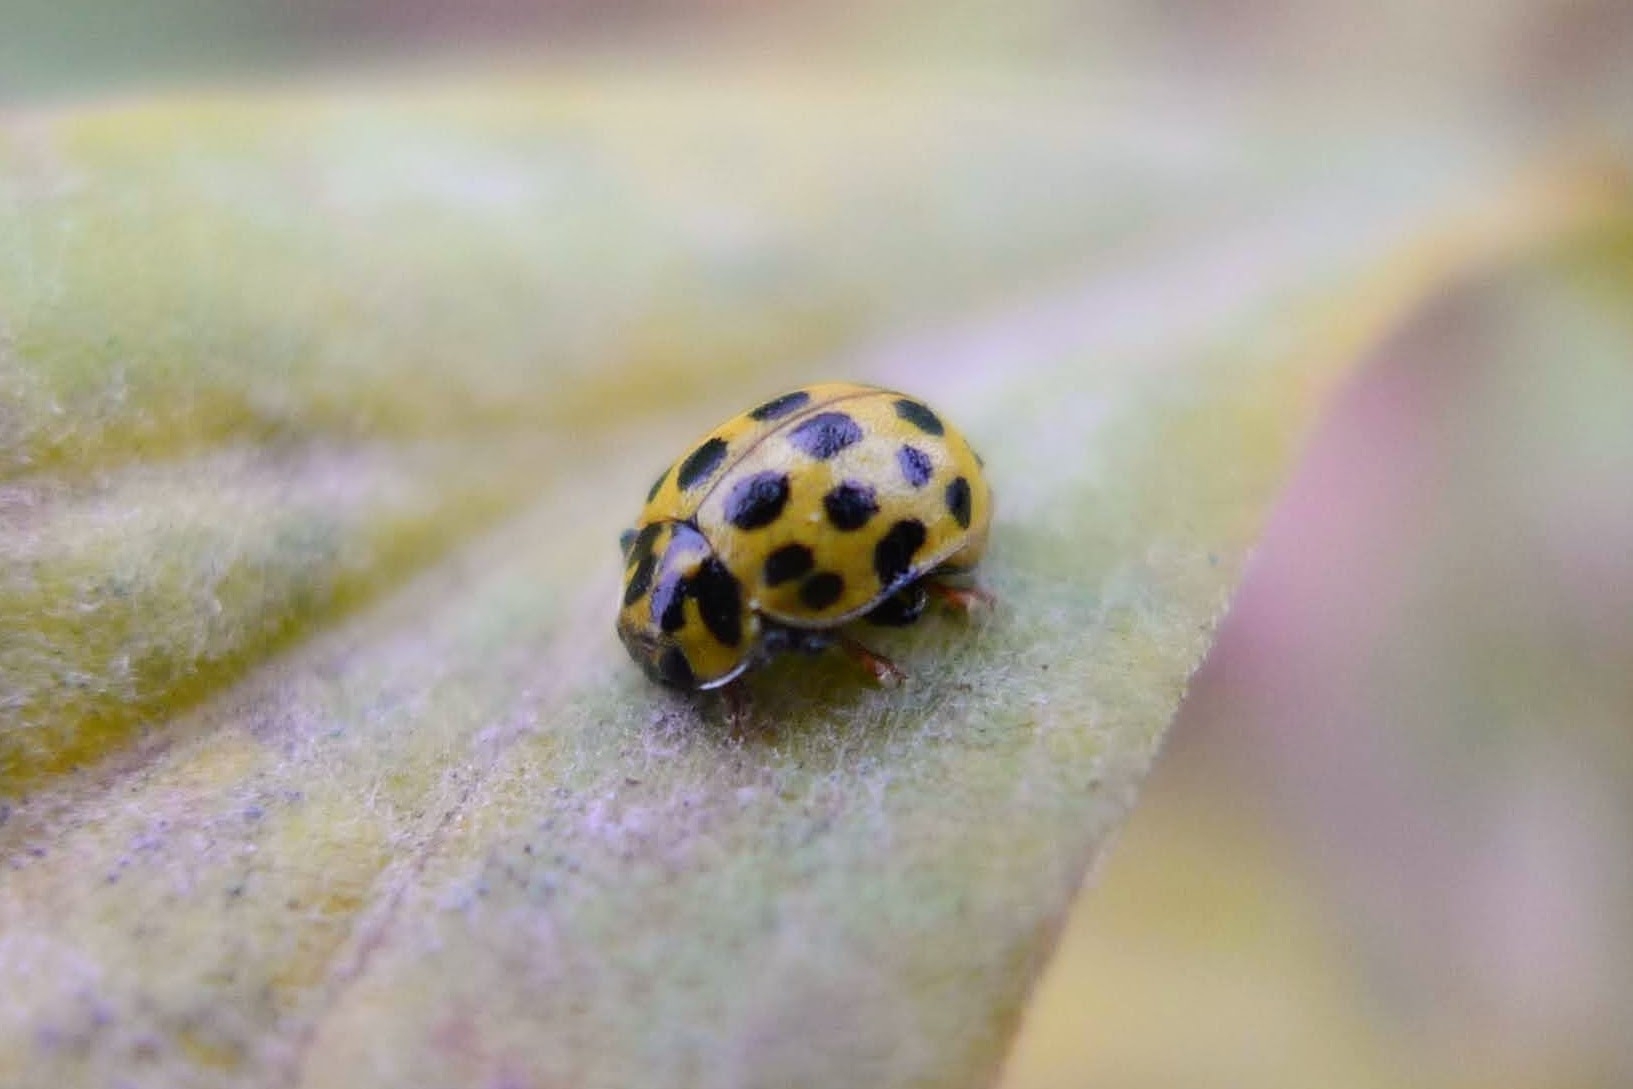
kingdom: Animalia
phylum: Arthropoda
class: Insecta
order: Coleoptera
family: Coccinellidae
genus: Psyllobora
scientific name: Psyllobora vigintiduopunctata
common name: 22-spot ladybird
